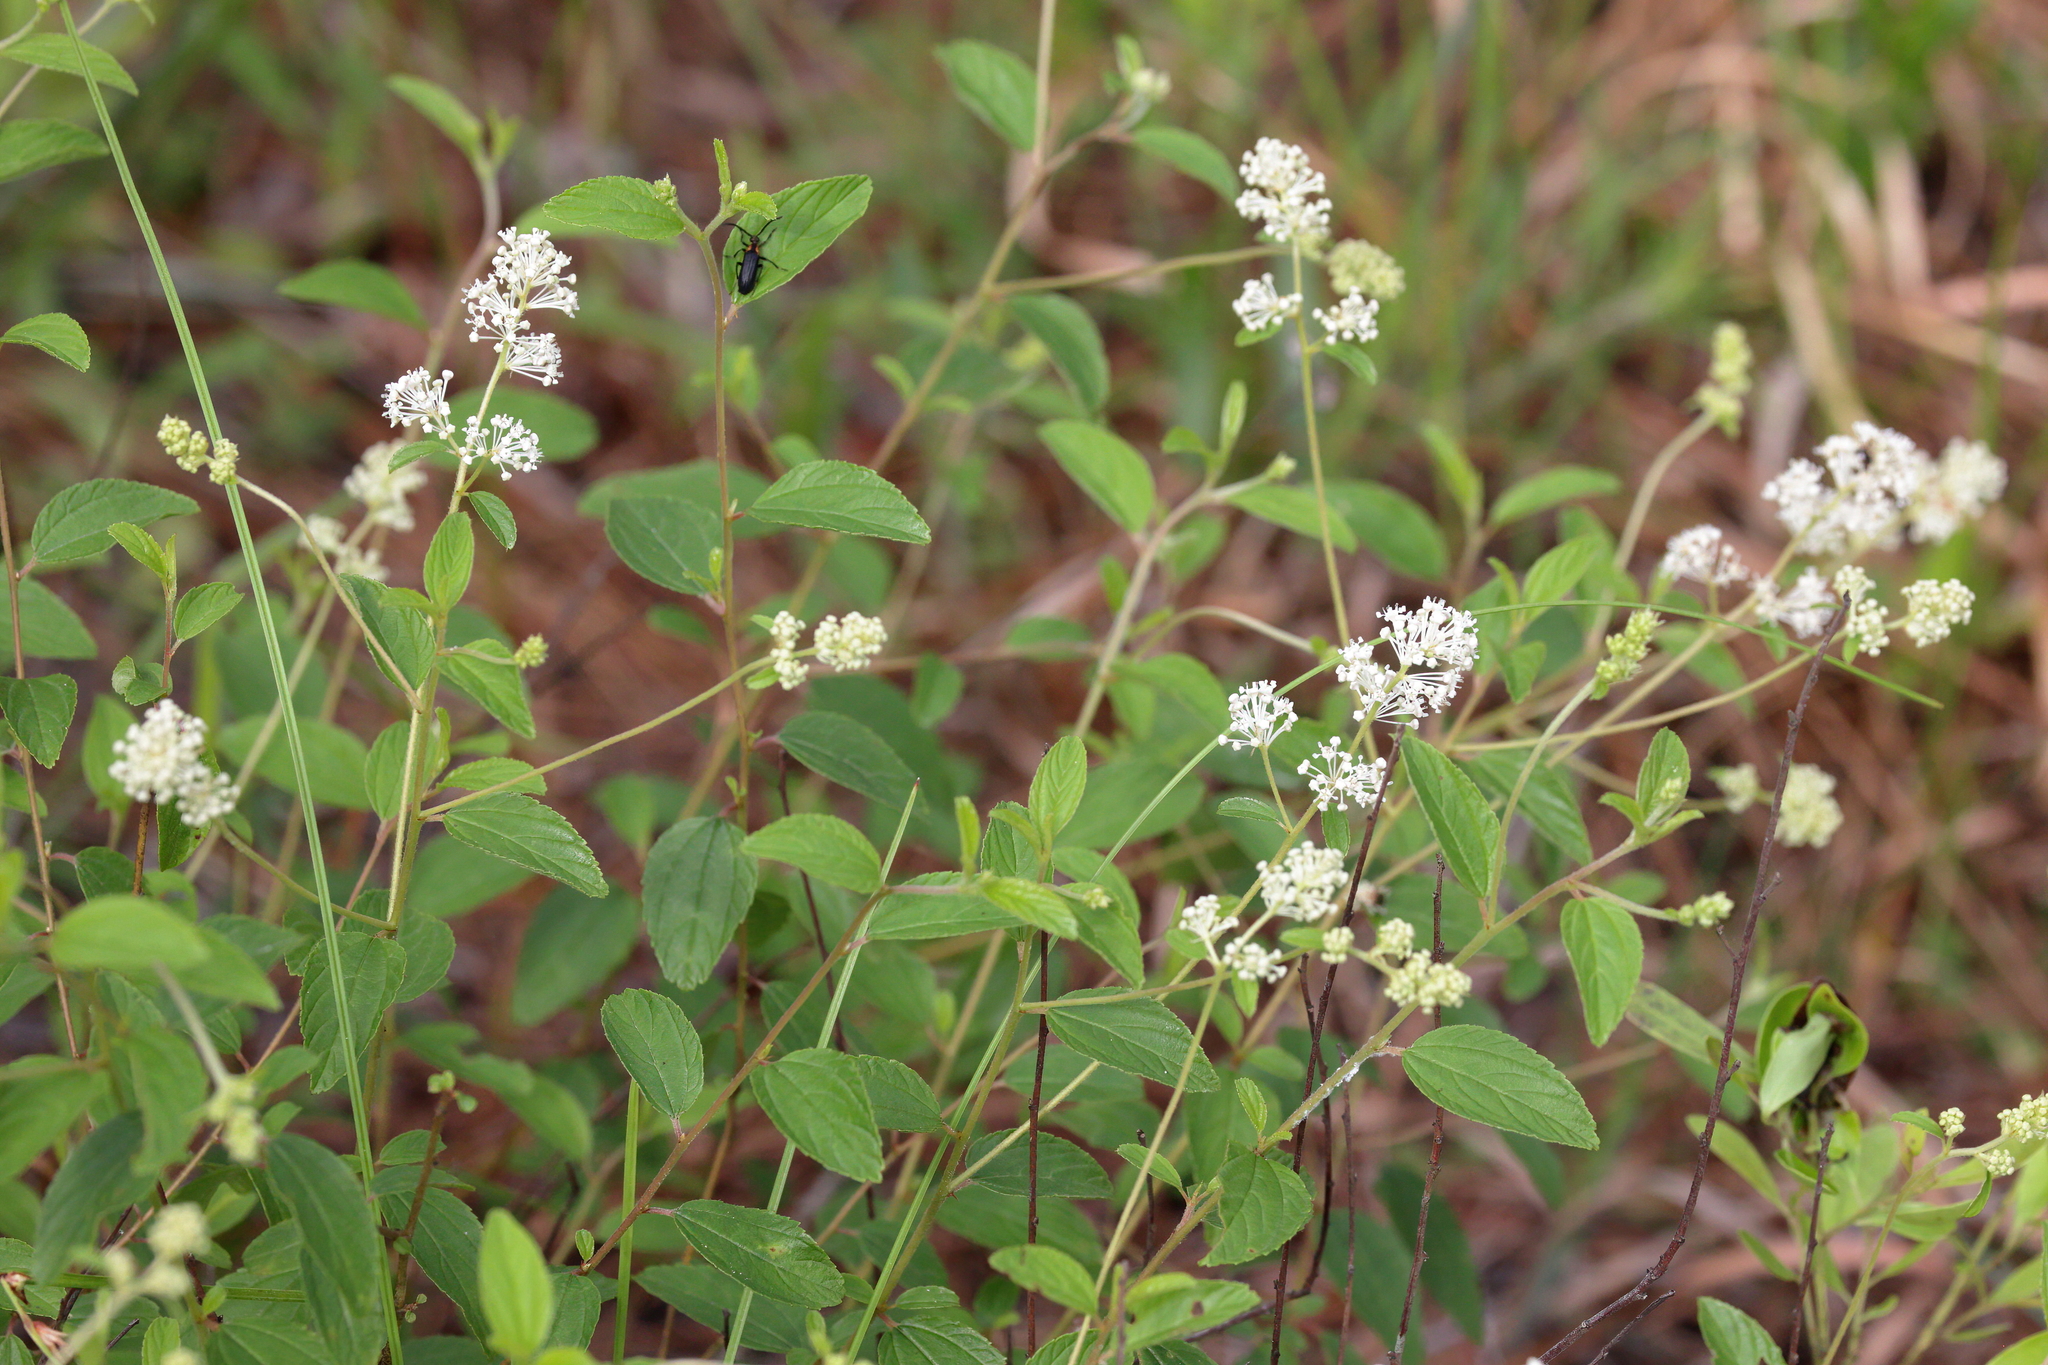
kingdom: Plantae
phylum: Tracheophyta
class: Magnoliopsida
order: Rosales
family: Rhamnaceae
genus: Ceanothus
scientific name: Ceanothus americanus
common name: Redroot
